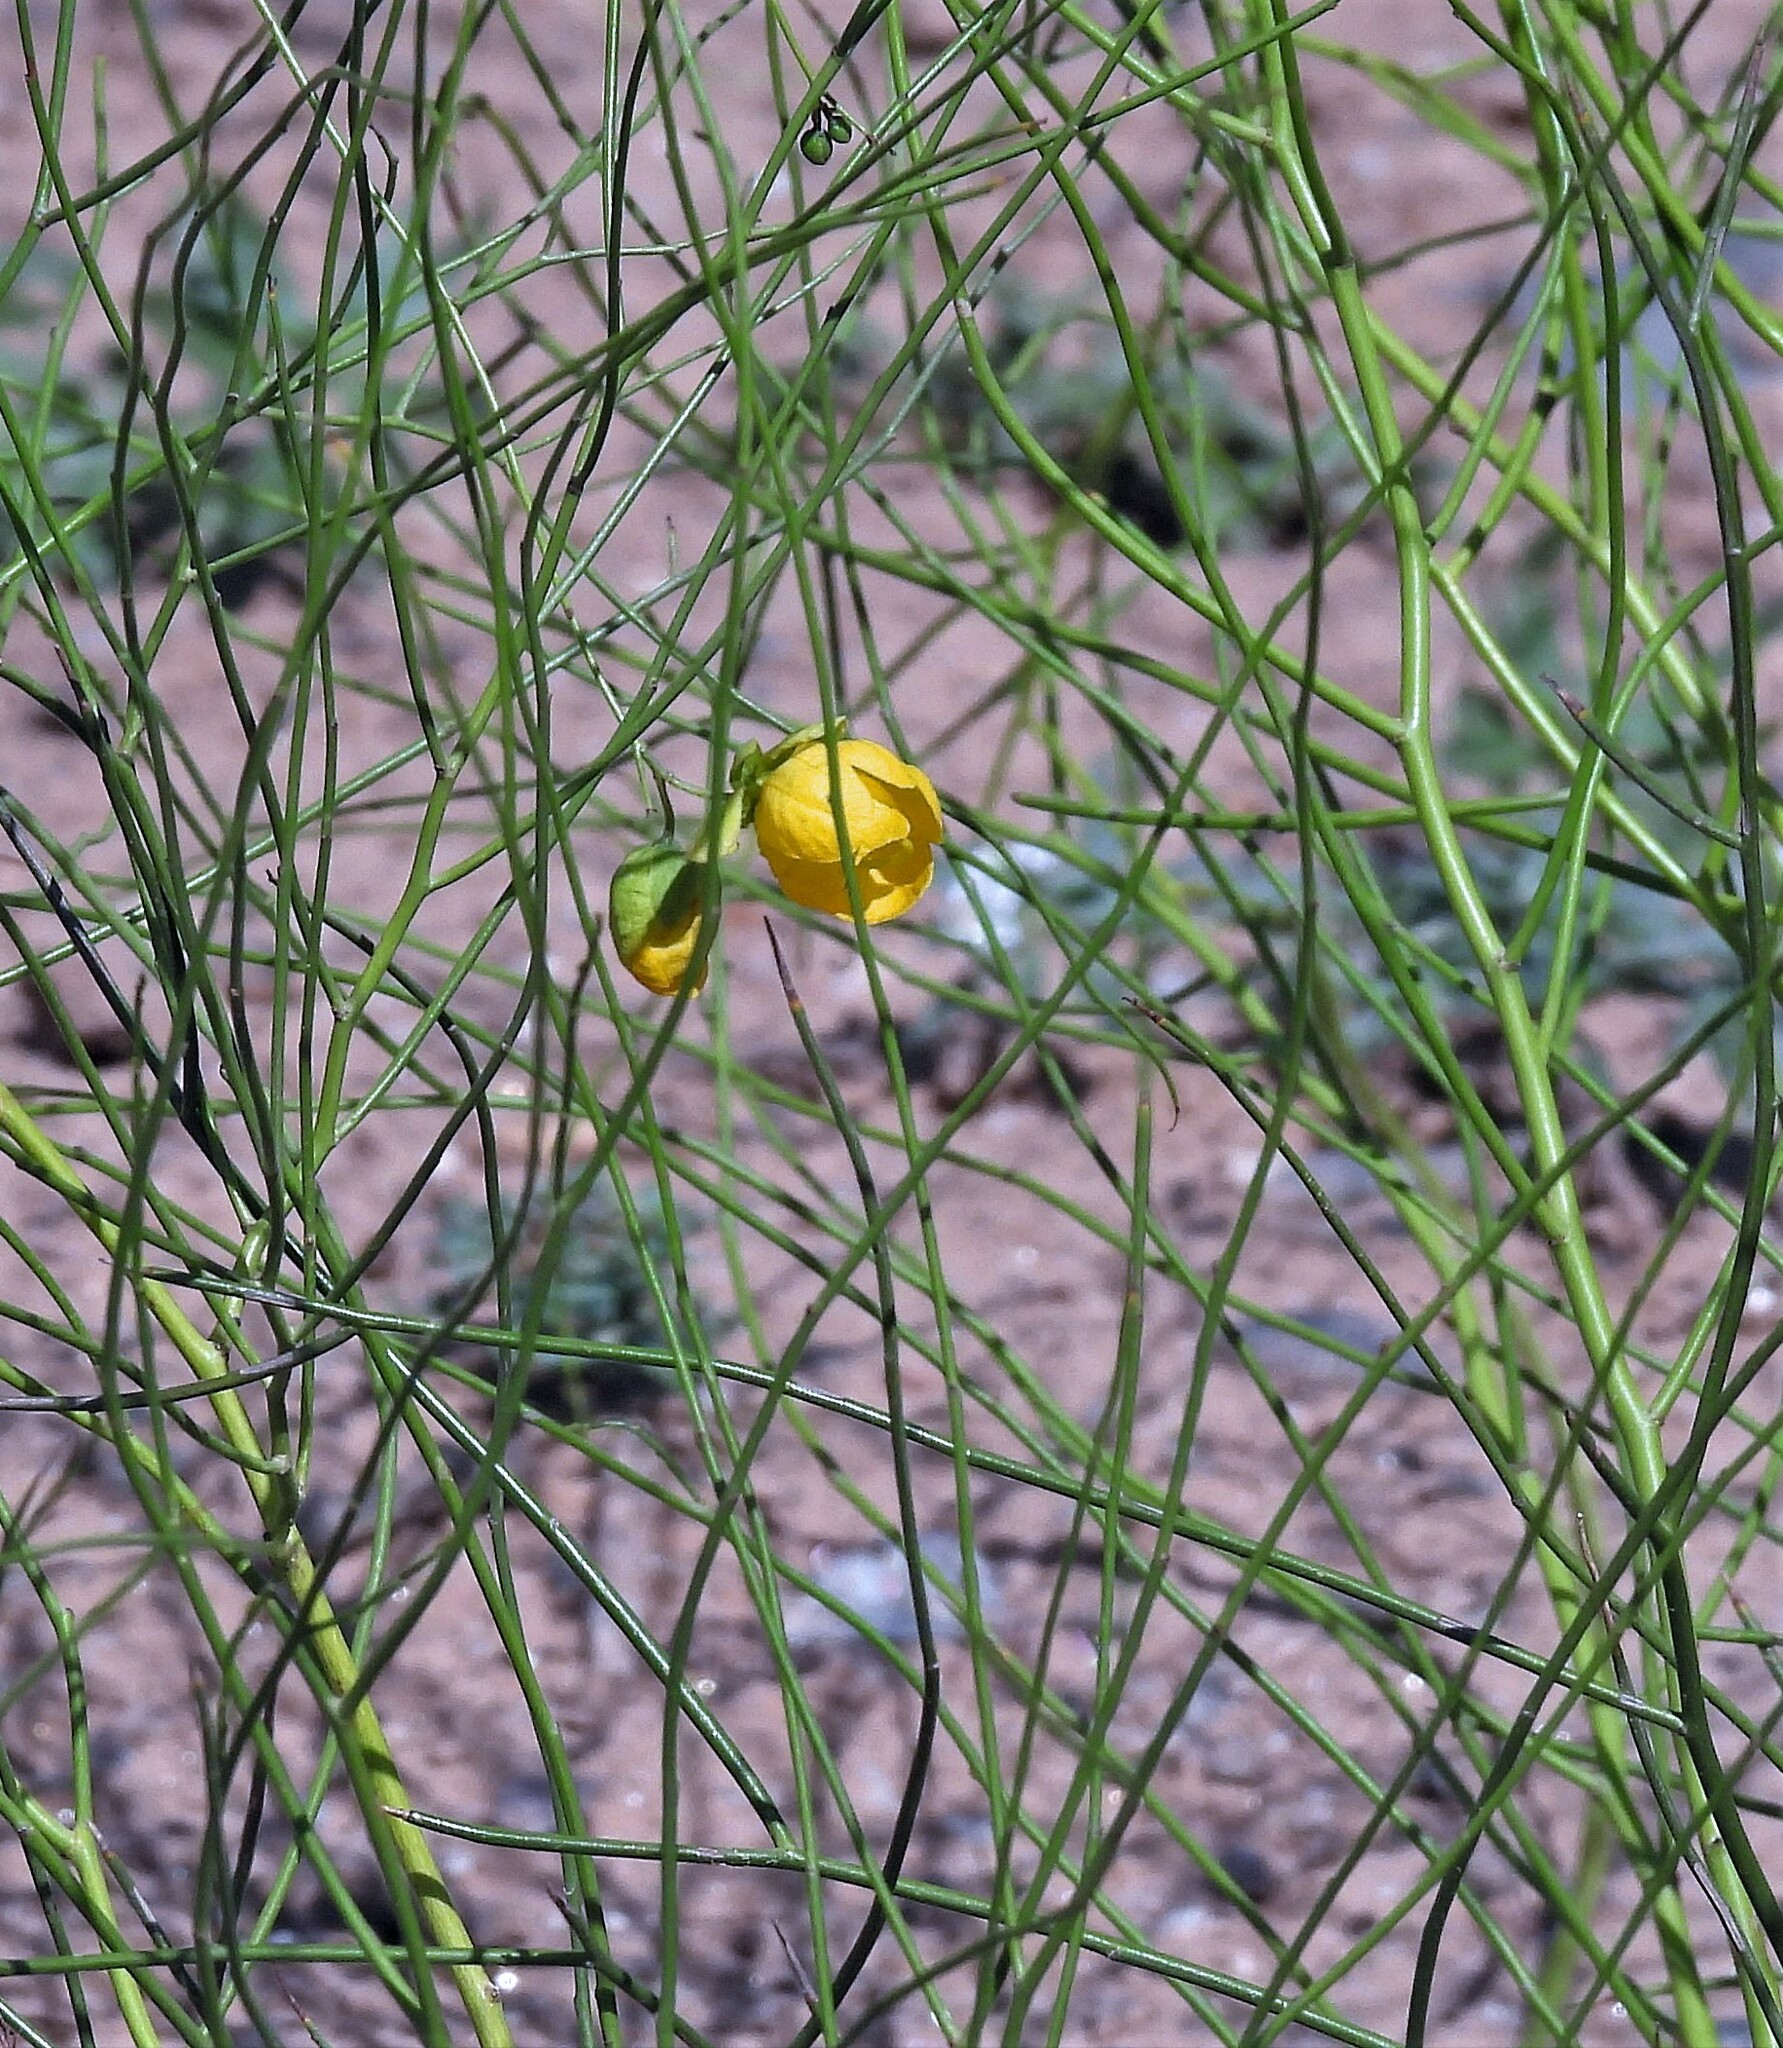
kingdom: Plantae
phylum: Tracheophyta
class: Magnoliopsida
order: Fabales
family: Fabaceae
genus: Senna
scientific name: Senna pachyrrhiza
